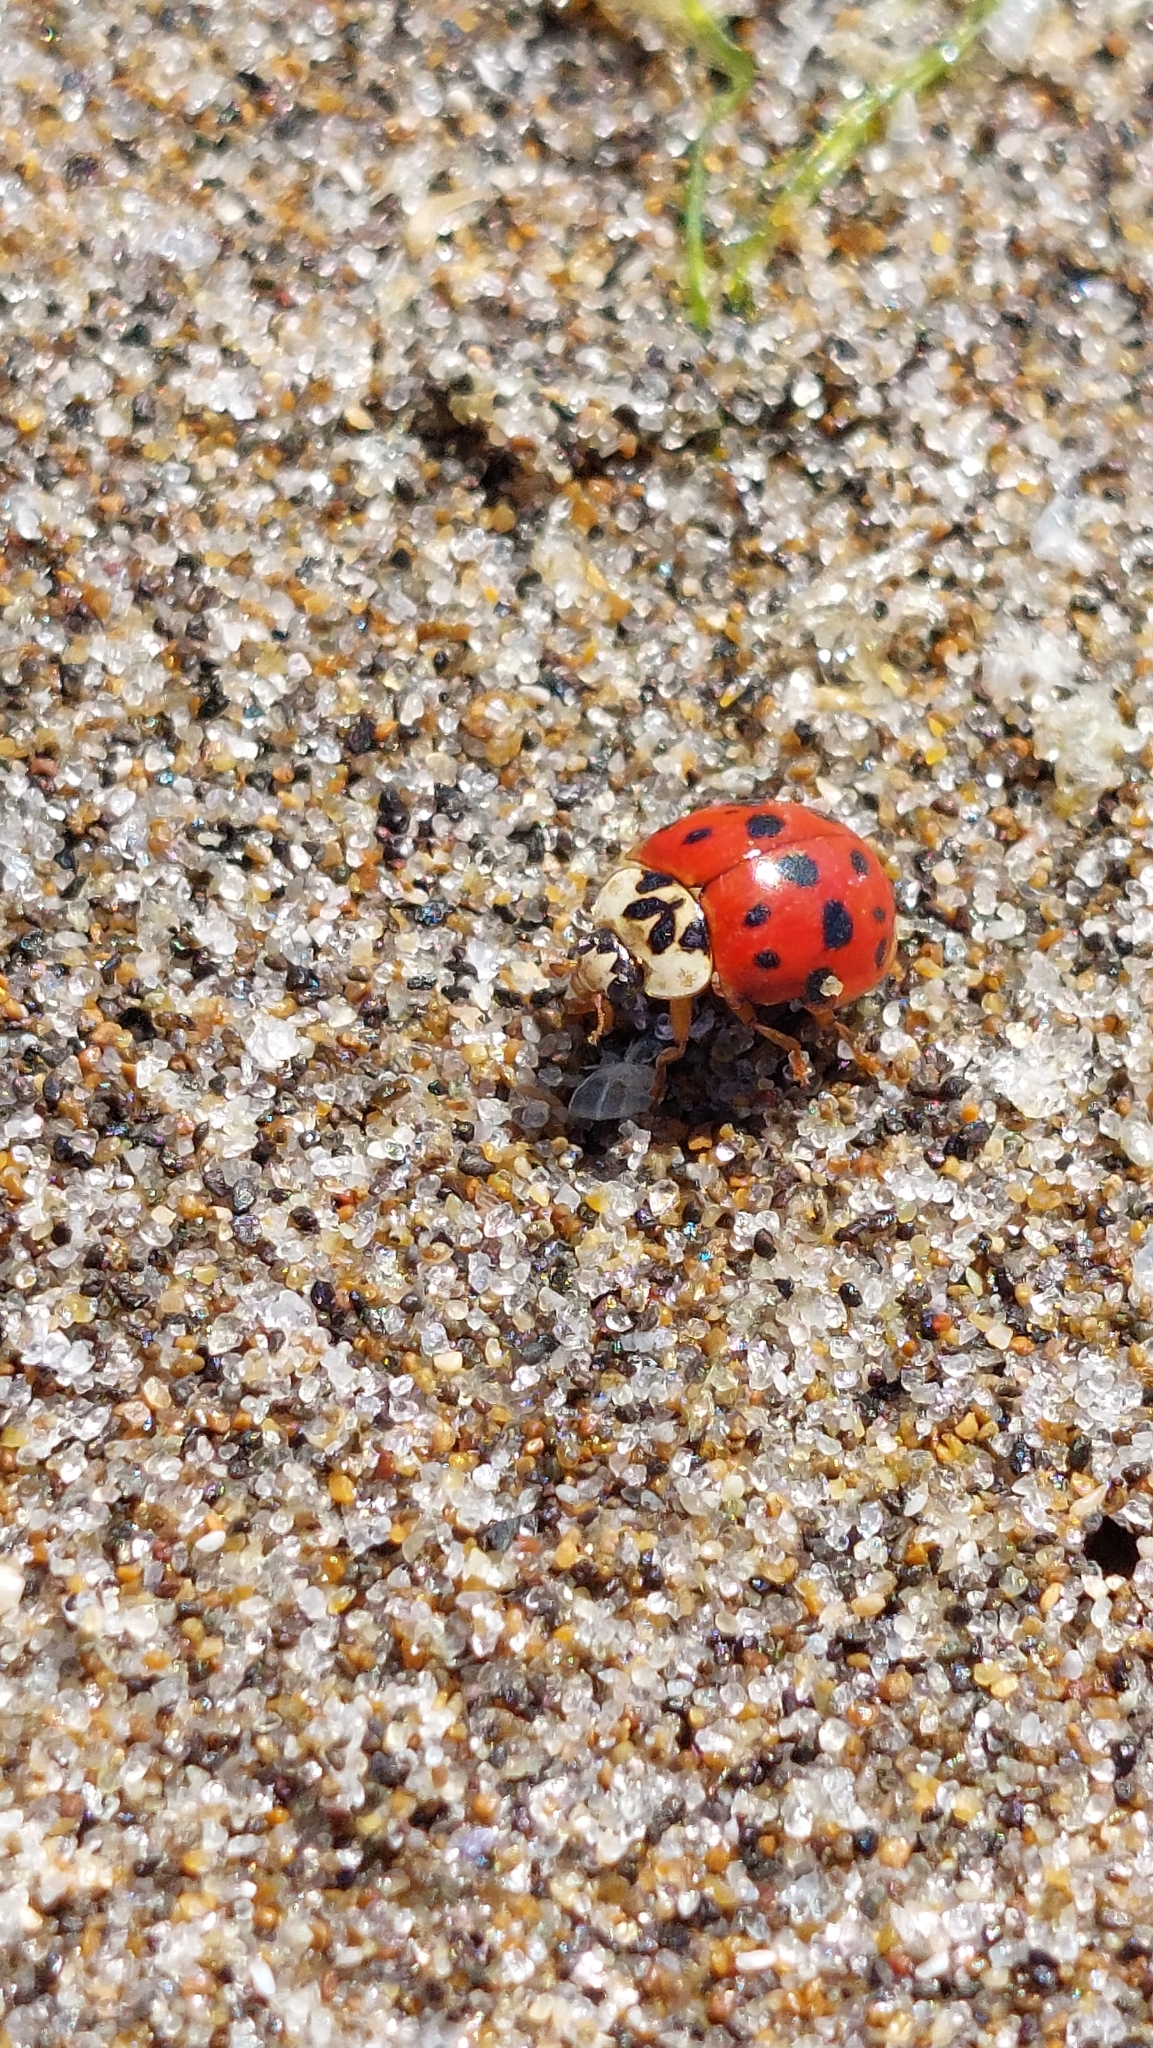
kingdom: Animalia
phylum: Arthropoda
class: Insecta
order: Coleoptera
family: Coccinellidae
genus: Harmonia
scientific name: Harmonia axyridis
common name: Harlequin ladybird
